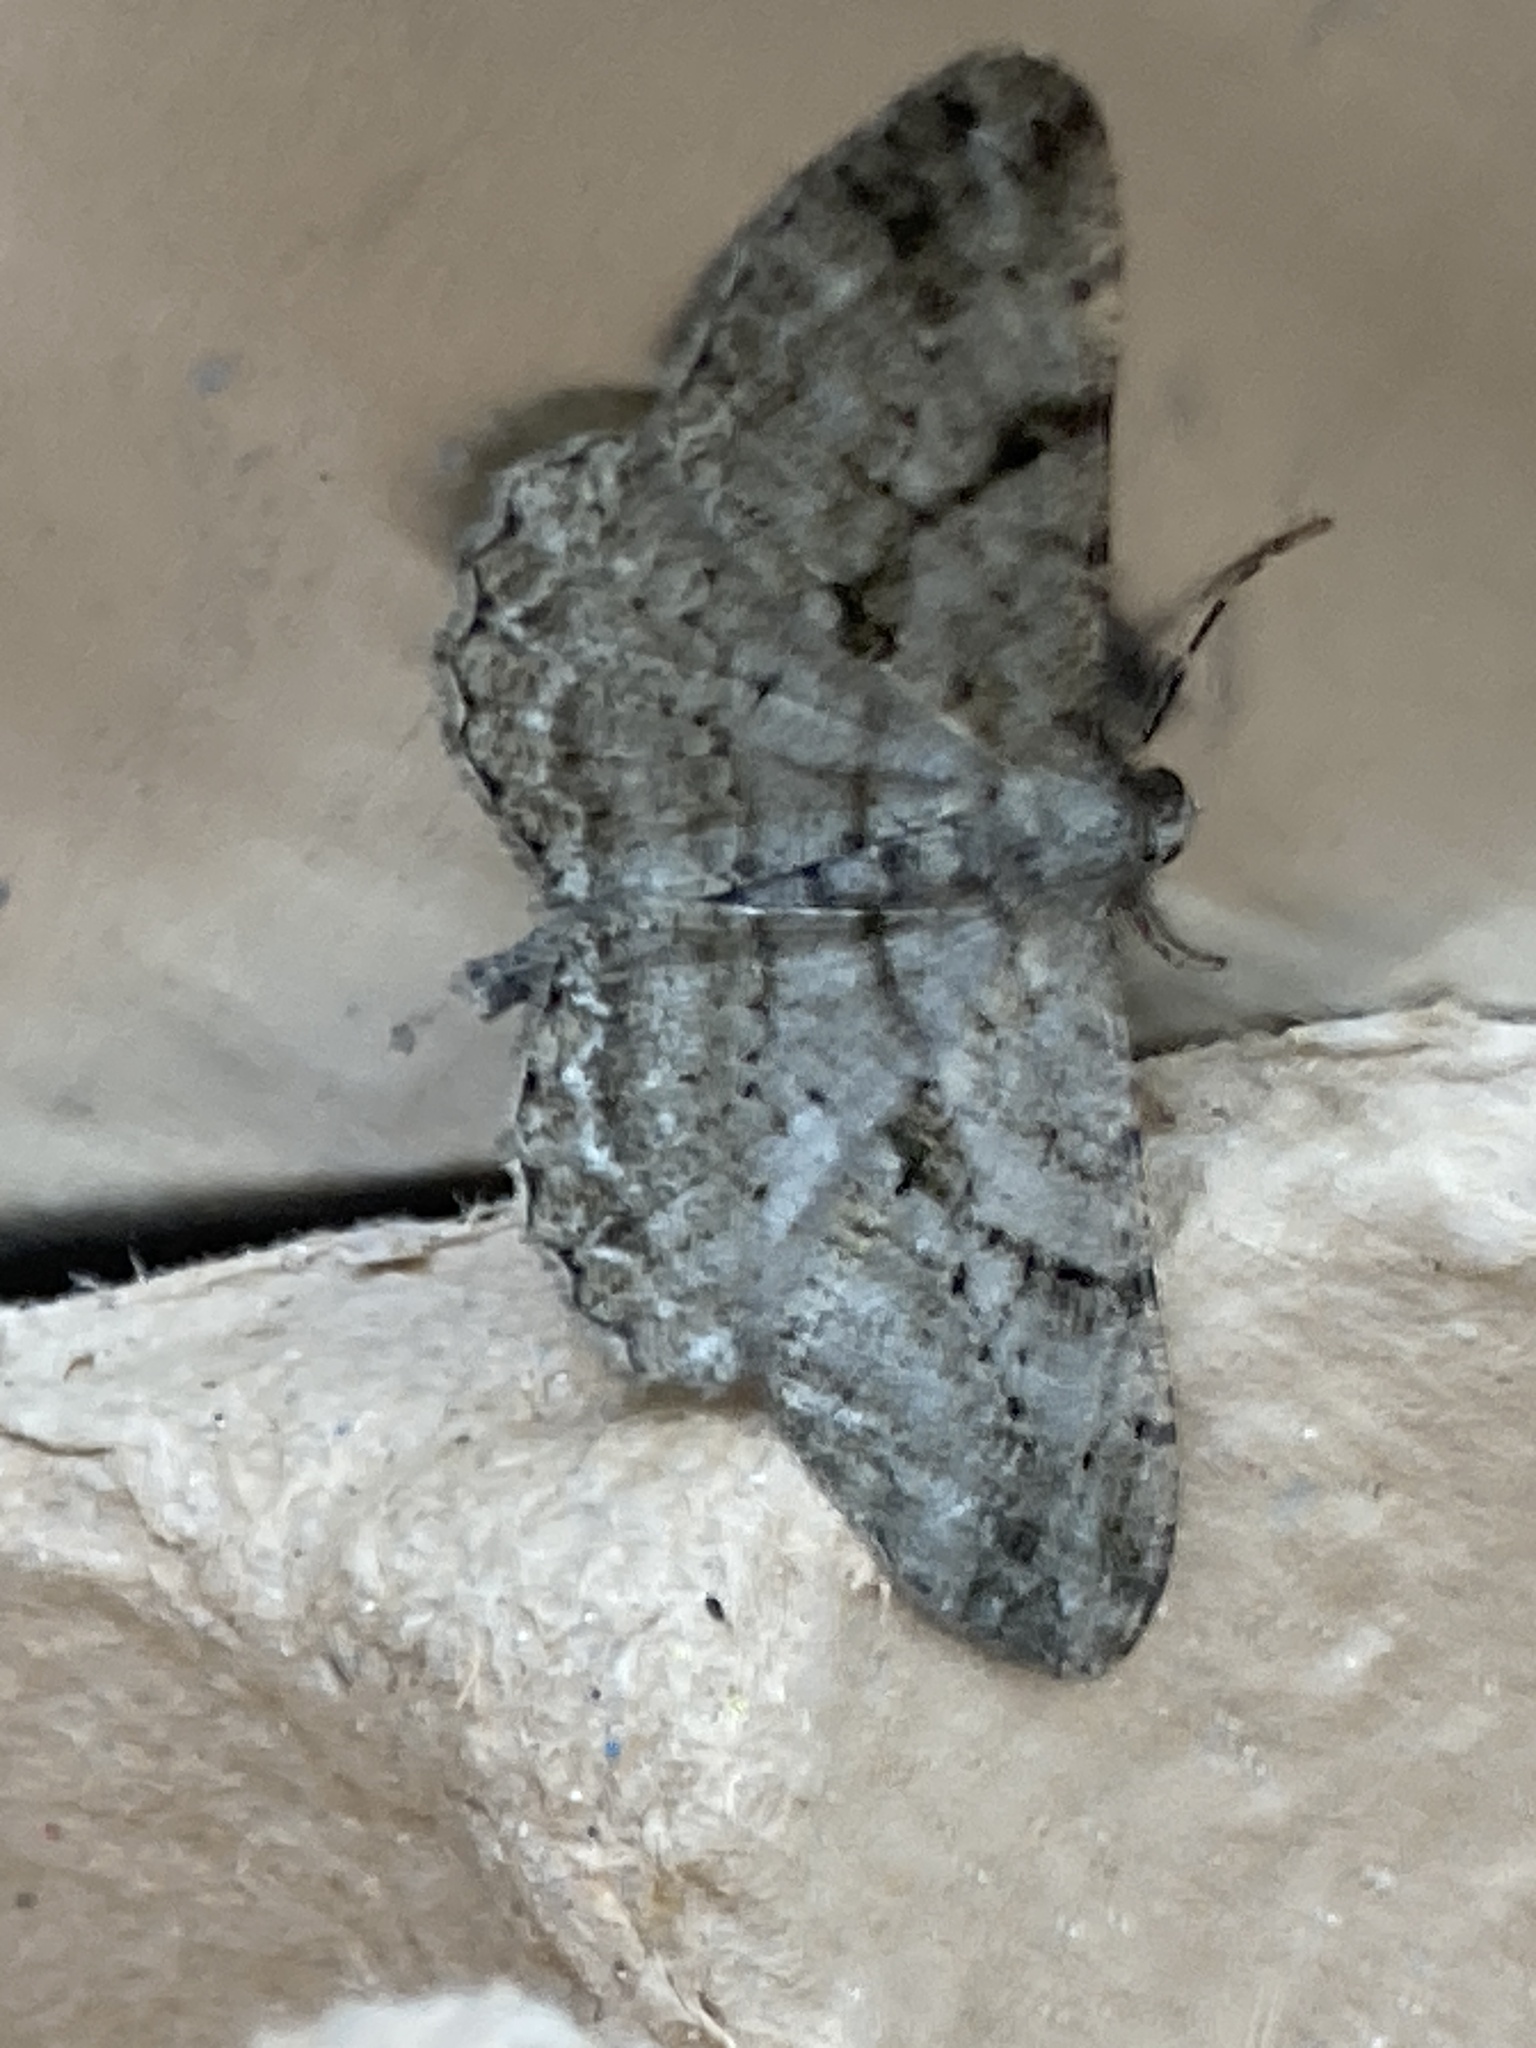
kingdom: Animalia
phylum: Arthropoda
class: Insecta
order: Lepidoptera
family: Geometridae
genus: Peribatodes
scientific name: Peribatodes rhomboidaria
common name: Willow beauty
